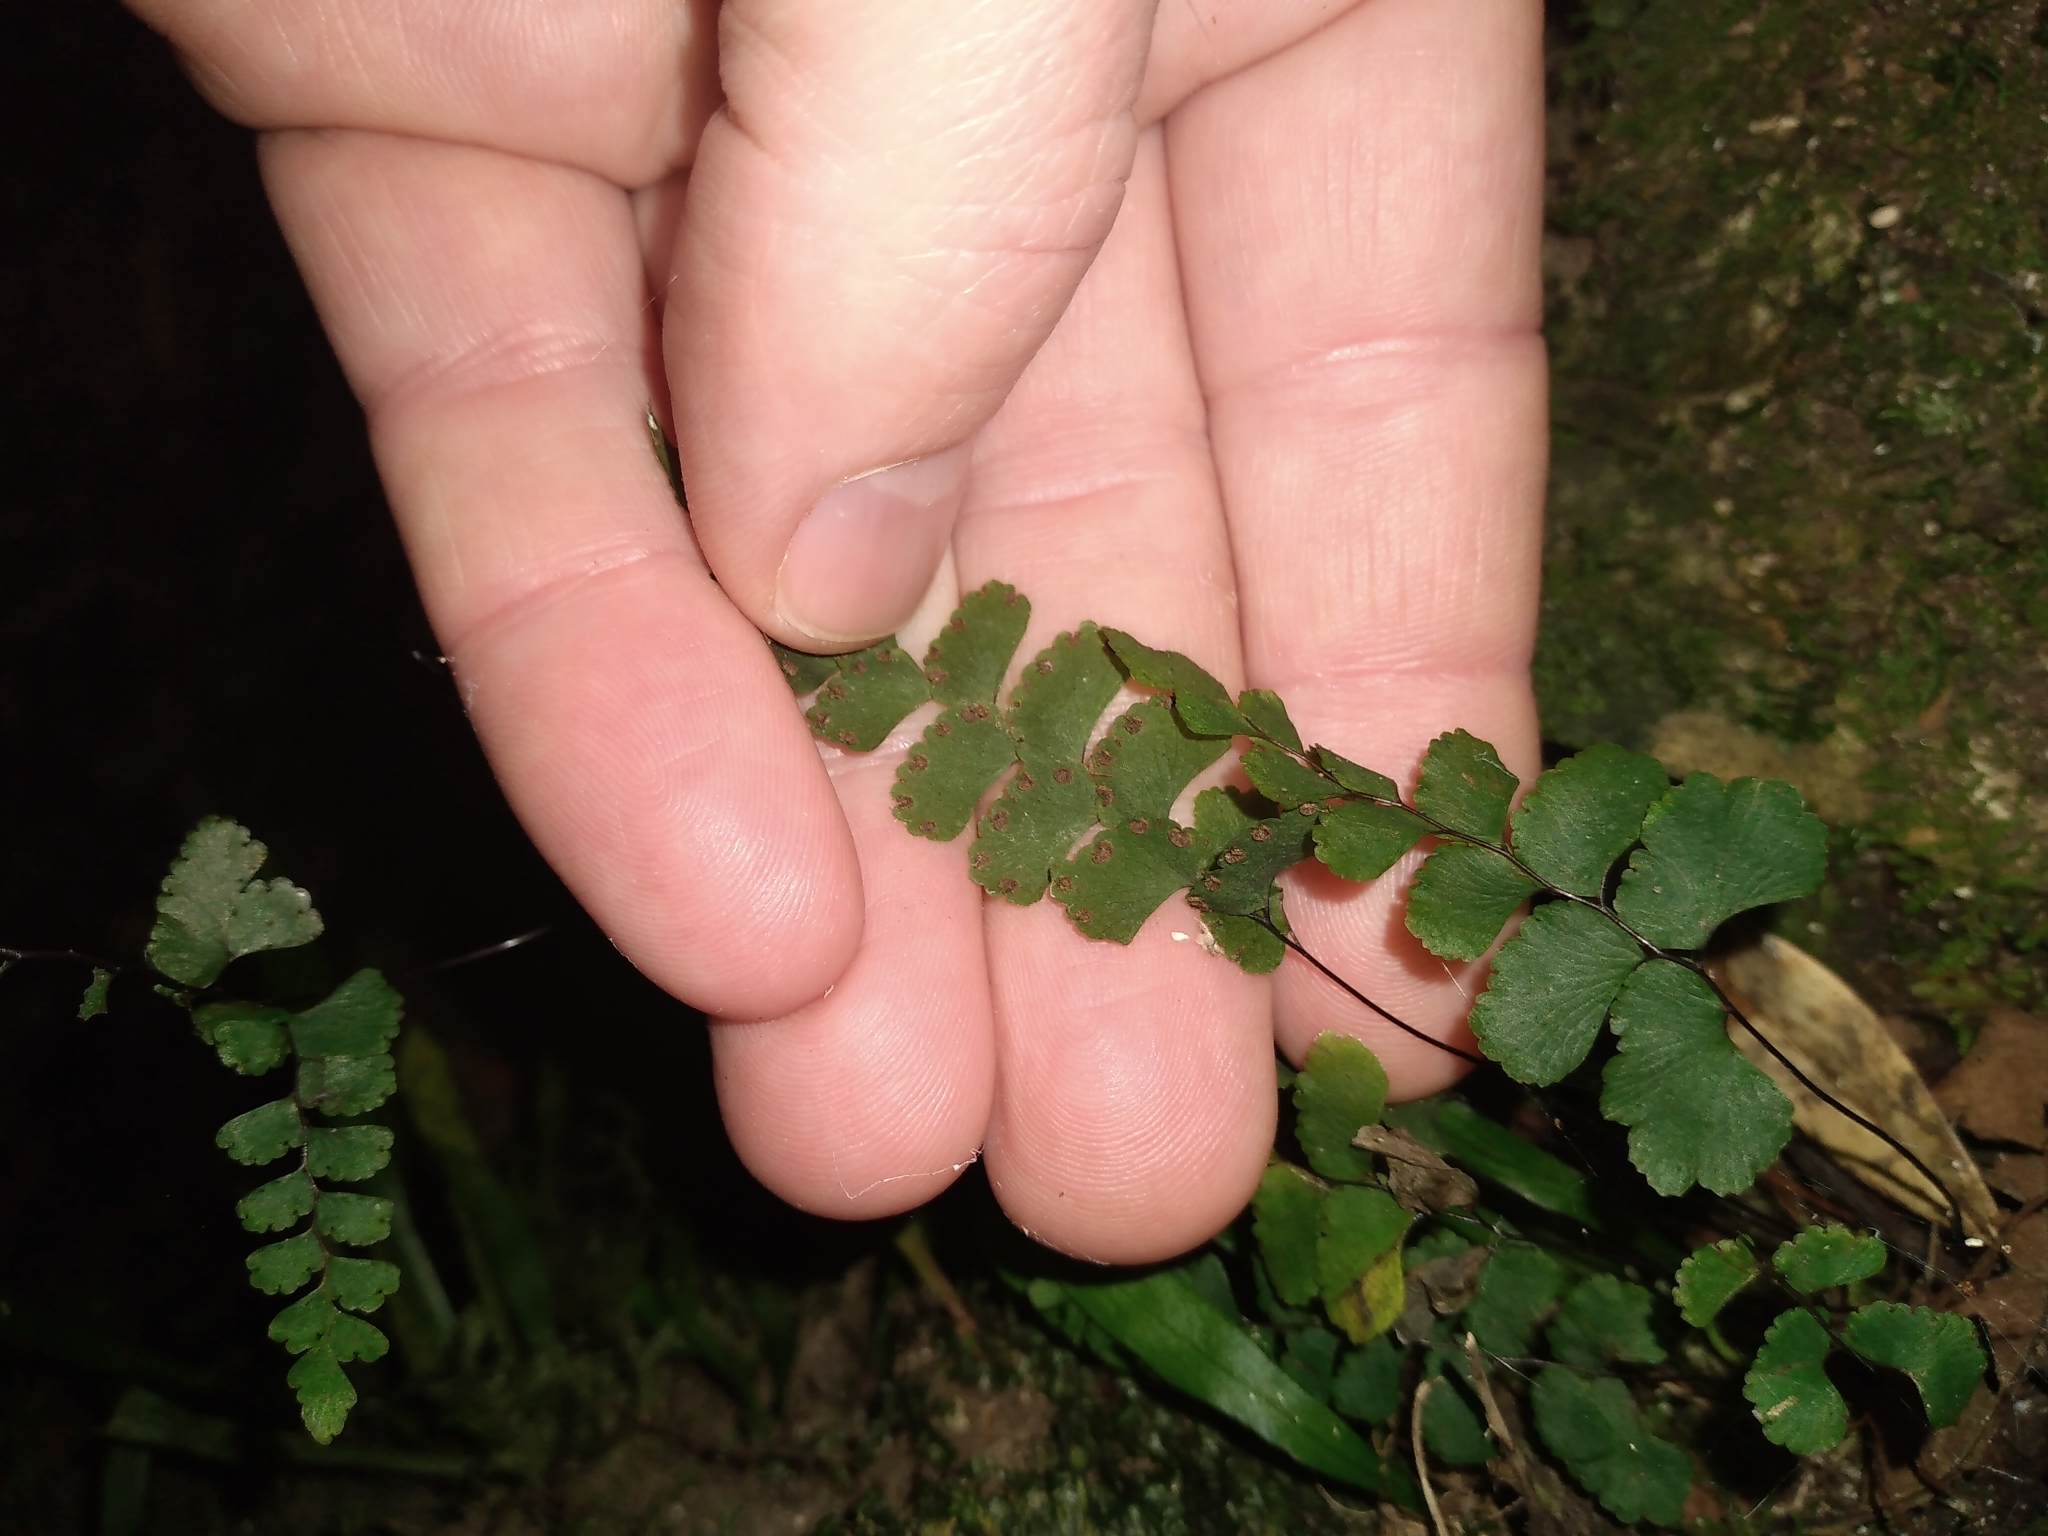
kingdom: Plantae
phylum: Tracheophyta
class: Polypodiopsida
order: Polypodiales
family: Pteridaceae
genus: Adiantum
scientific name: Adiantum diaphanum
